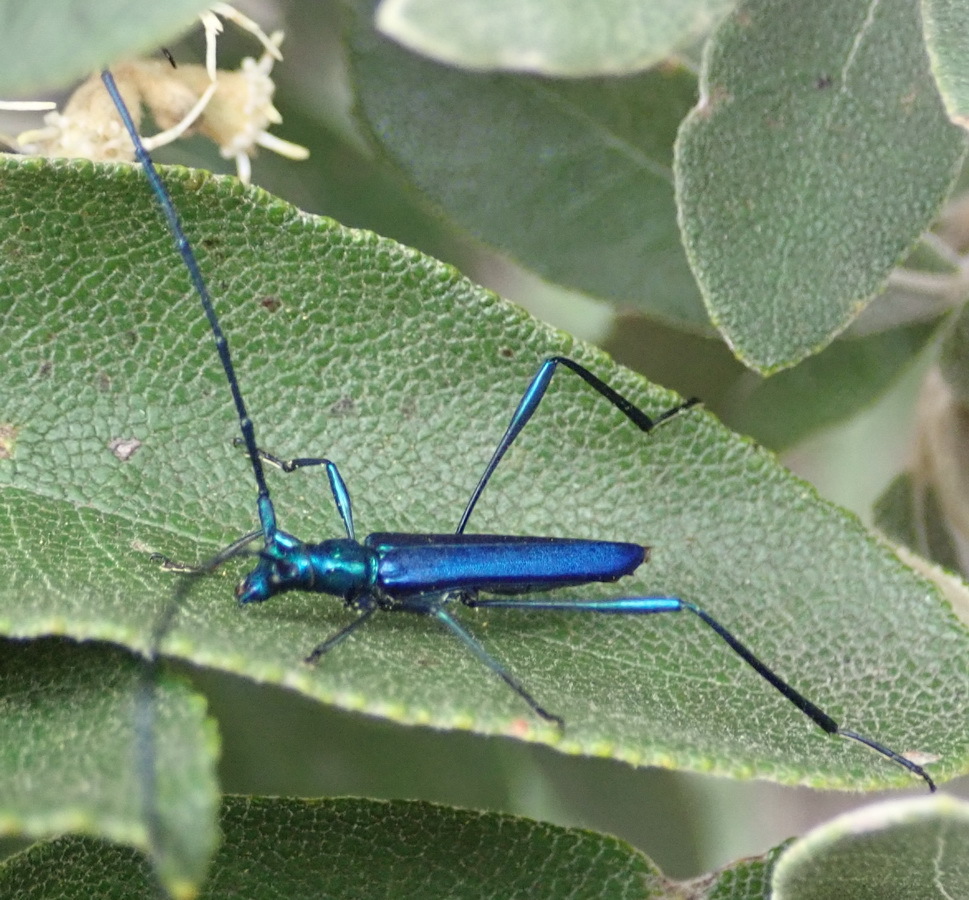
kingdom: Animalia
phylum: Arthropoda
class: Insecta
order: Coleoptera
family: Cerambycidae
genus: Promeces
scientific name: Promeces longipes
